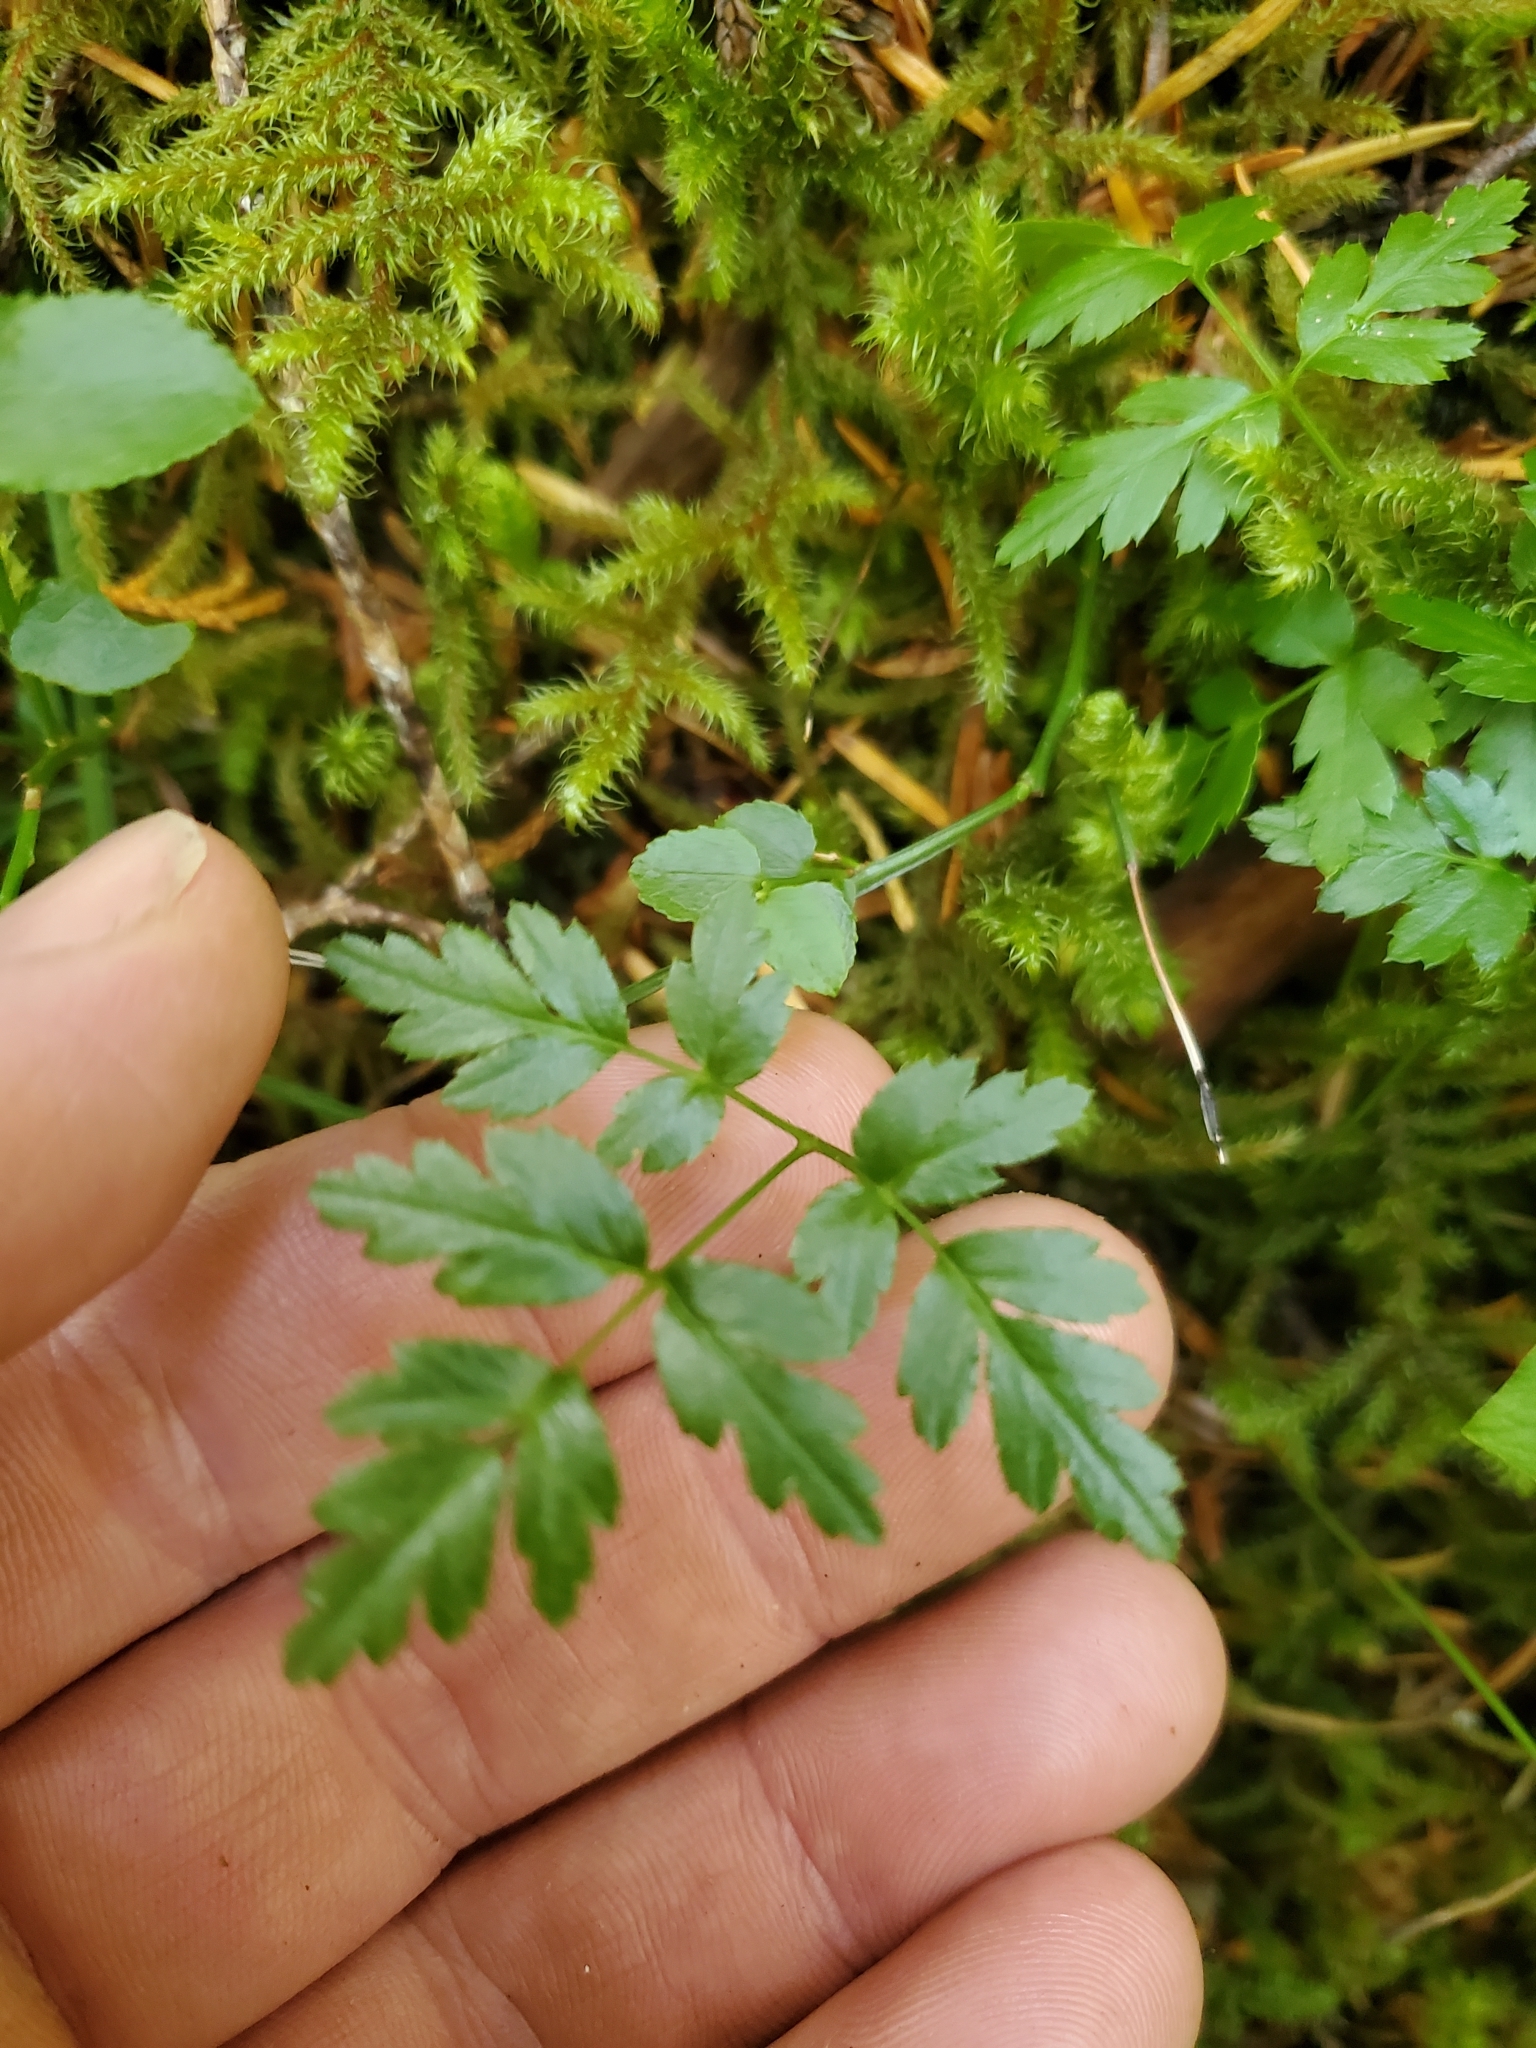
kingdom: Plantae
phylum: Tracheophyta
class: Magnoliopsida
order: Ranunculales
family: Ranunculaceae
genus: Coptis
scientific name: Coptis aspleniifolia
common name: Fern-leaved goldthread
